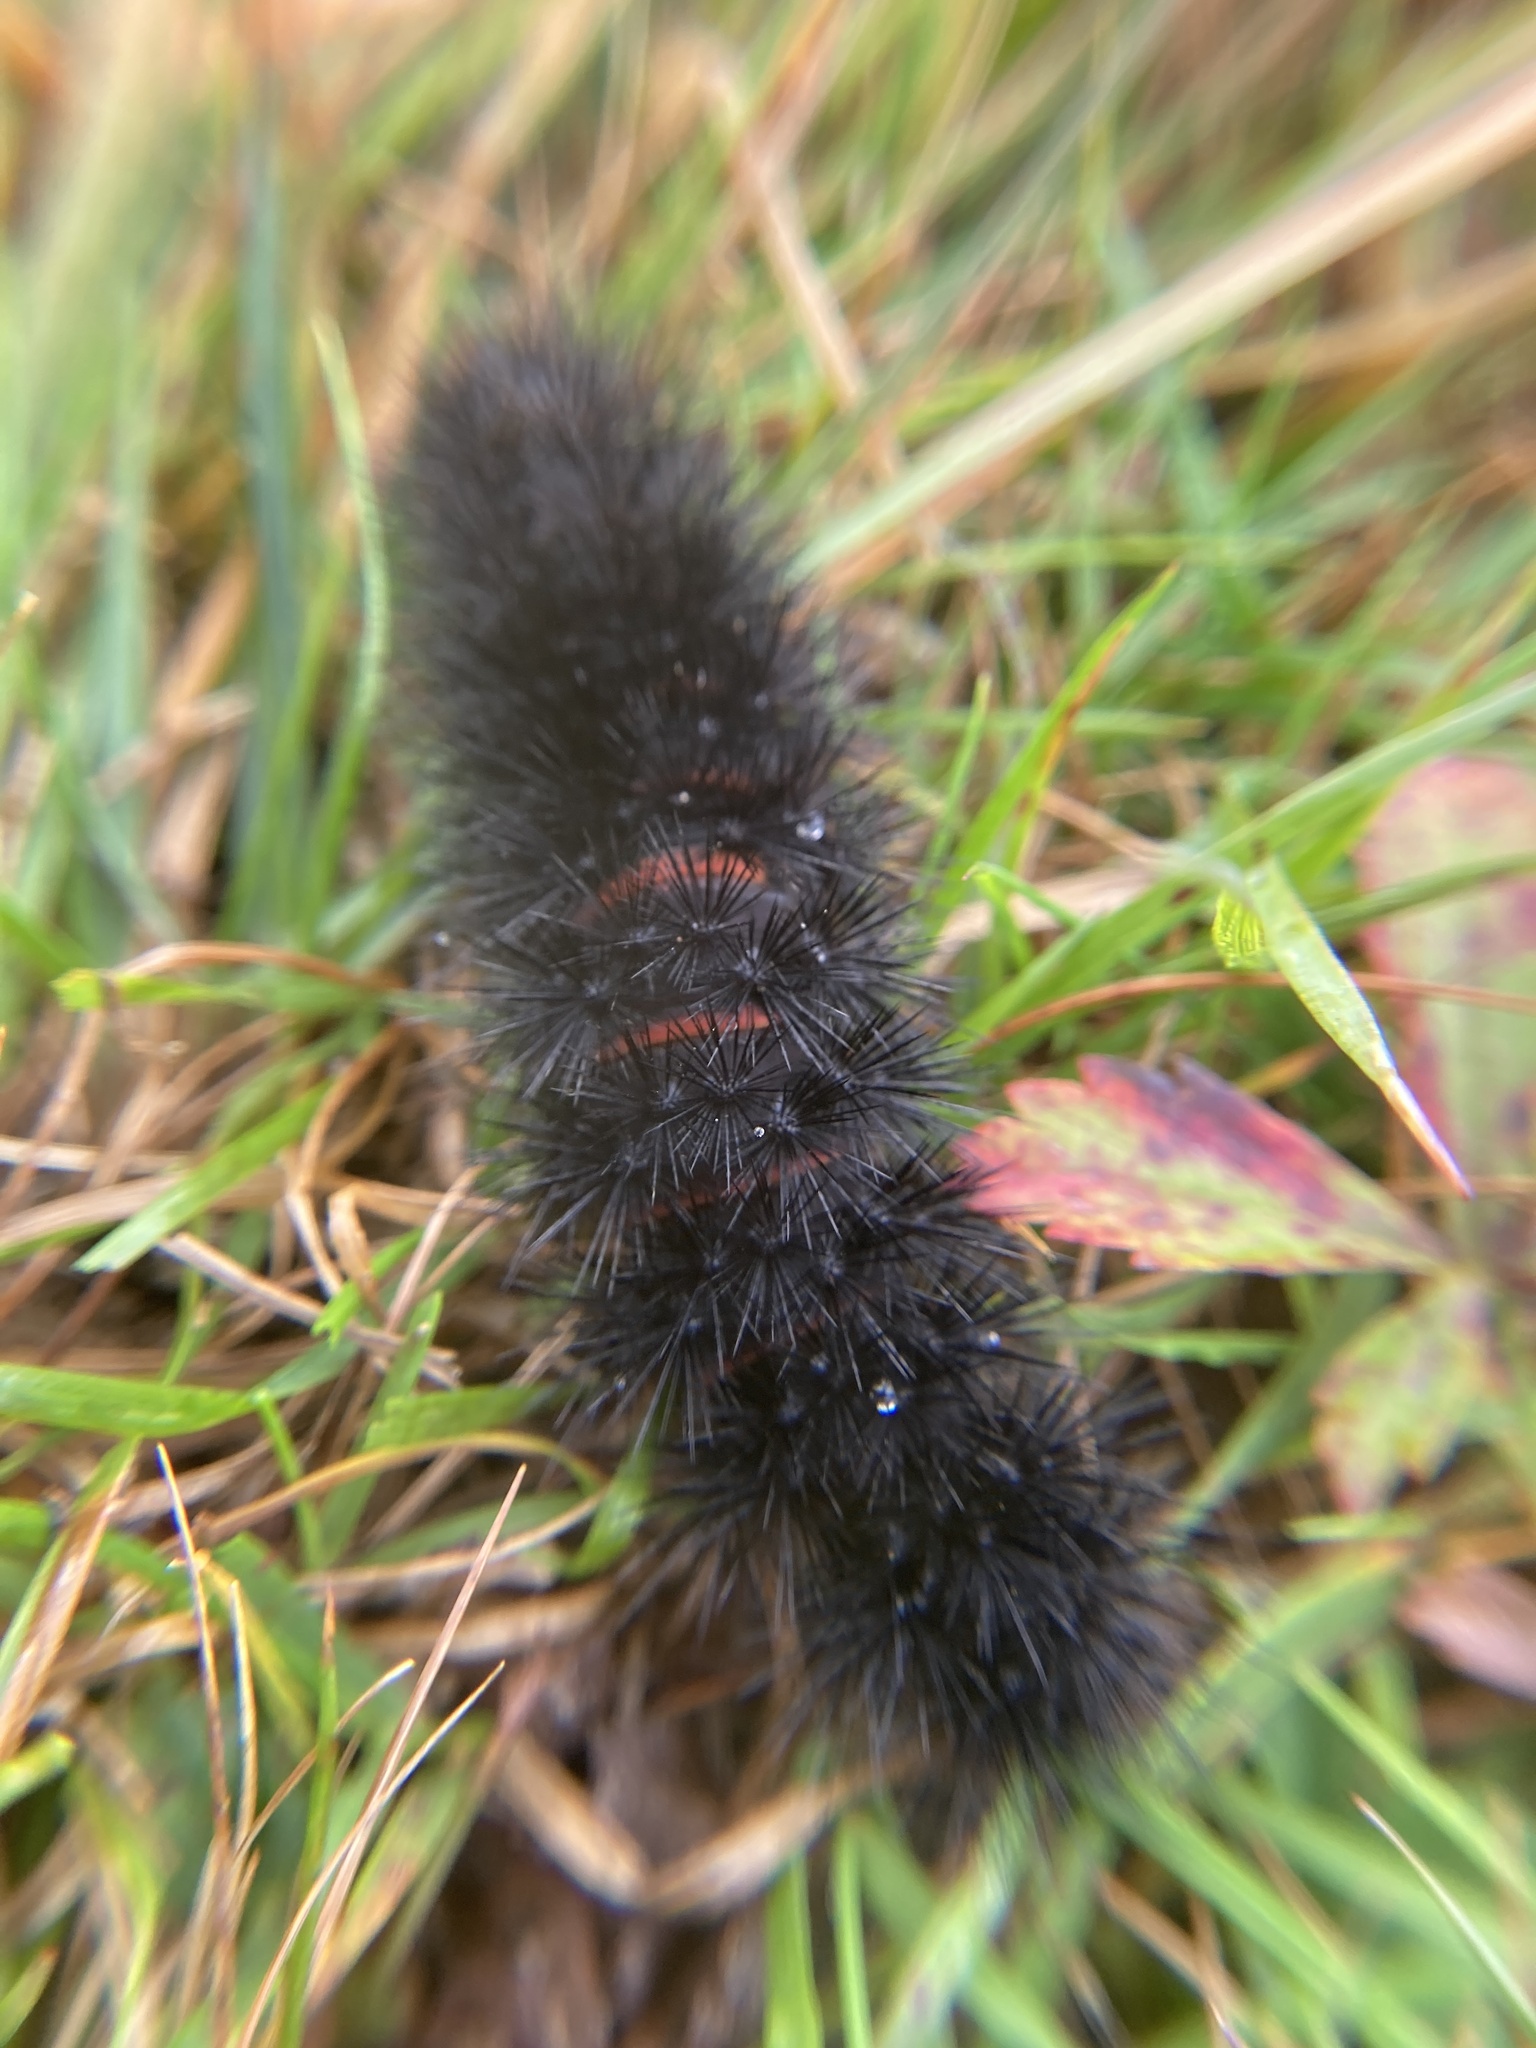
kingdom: Animalia
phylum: Arthropoda
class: Insecta
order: Lepidoptera
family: Erebidae
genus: Hypercompe
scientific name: Hypercompe scribonia
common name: Giant leopard moth
